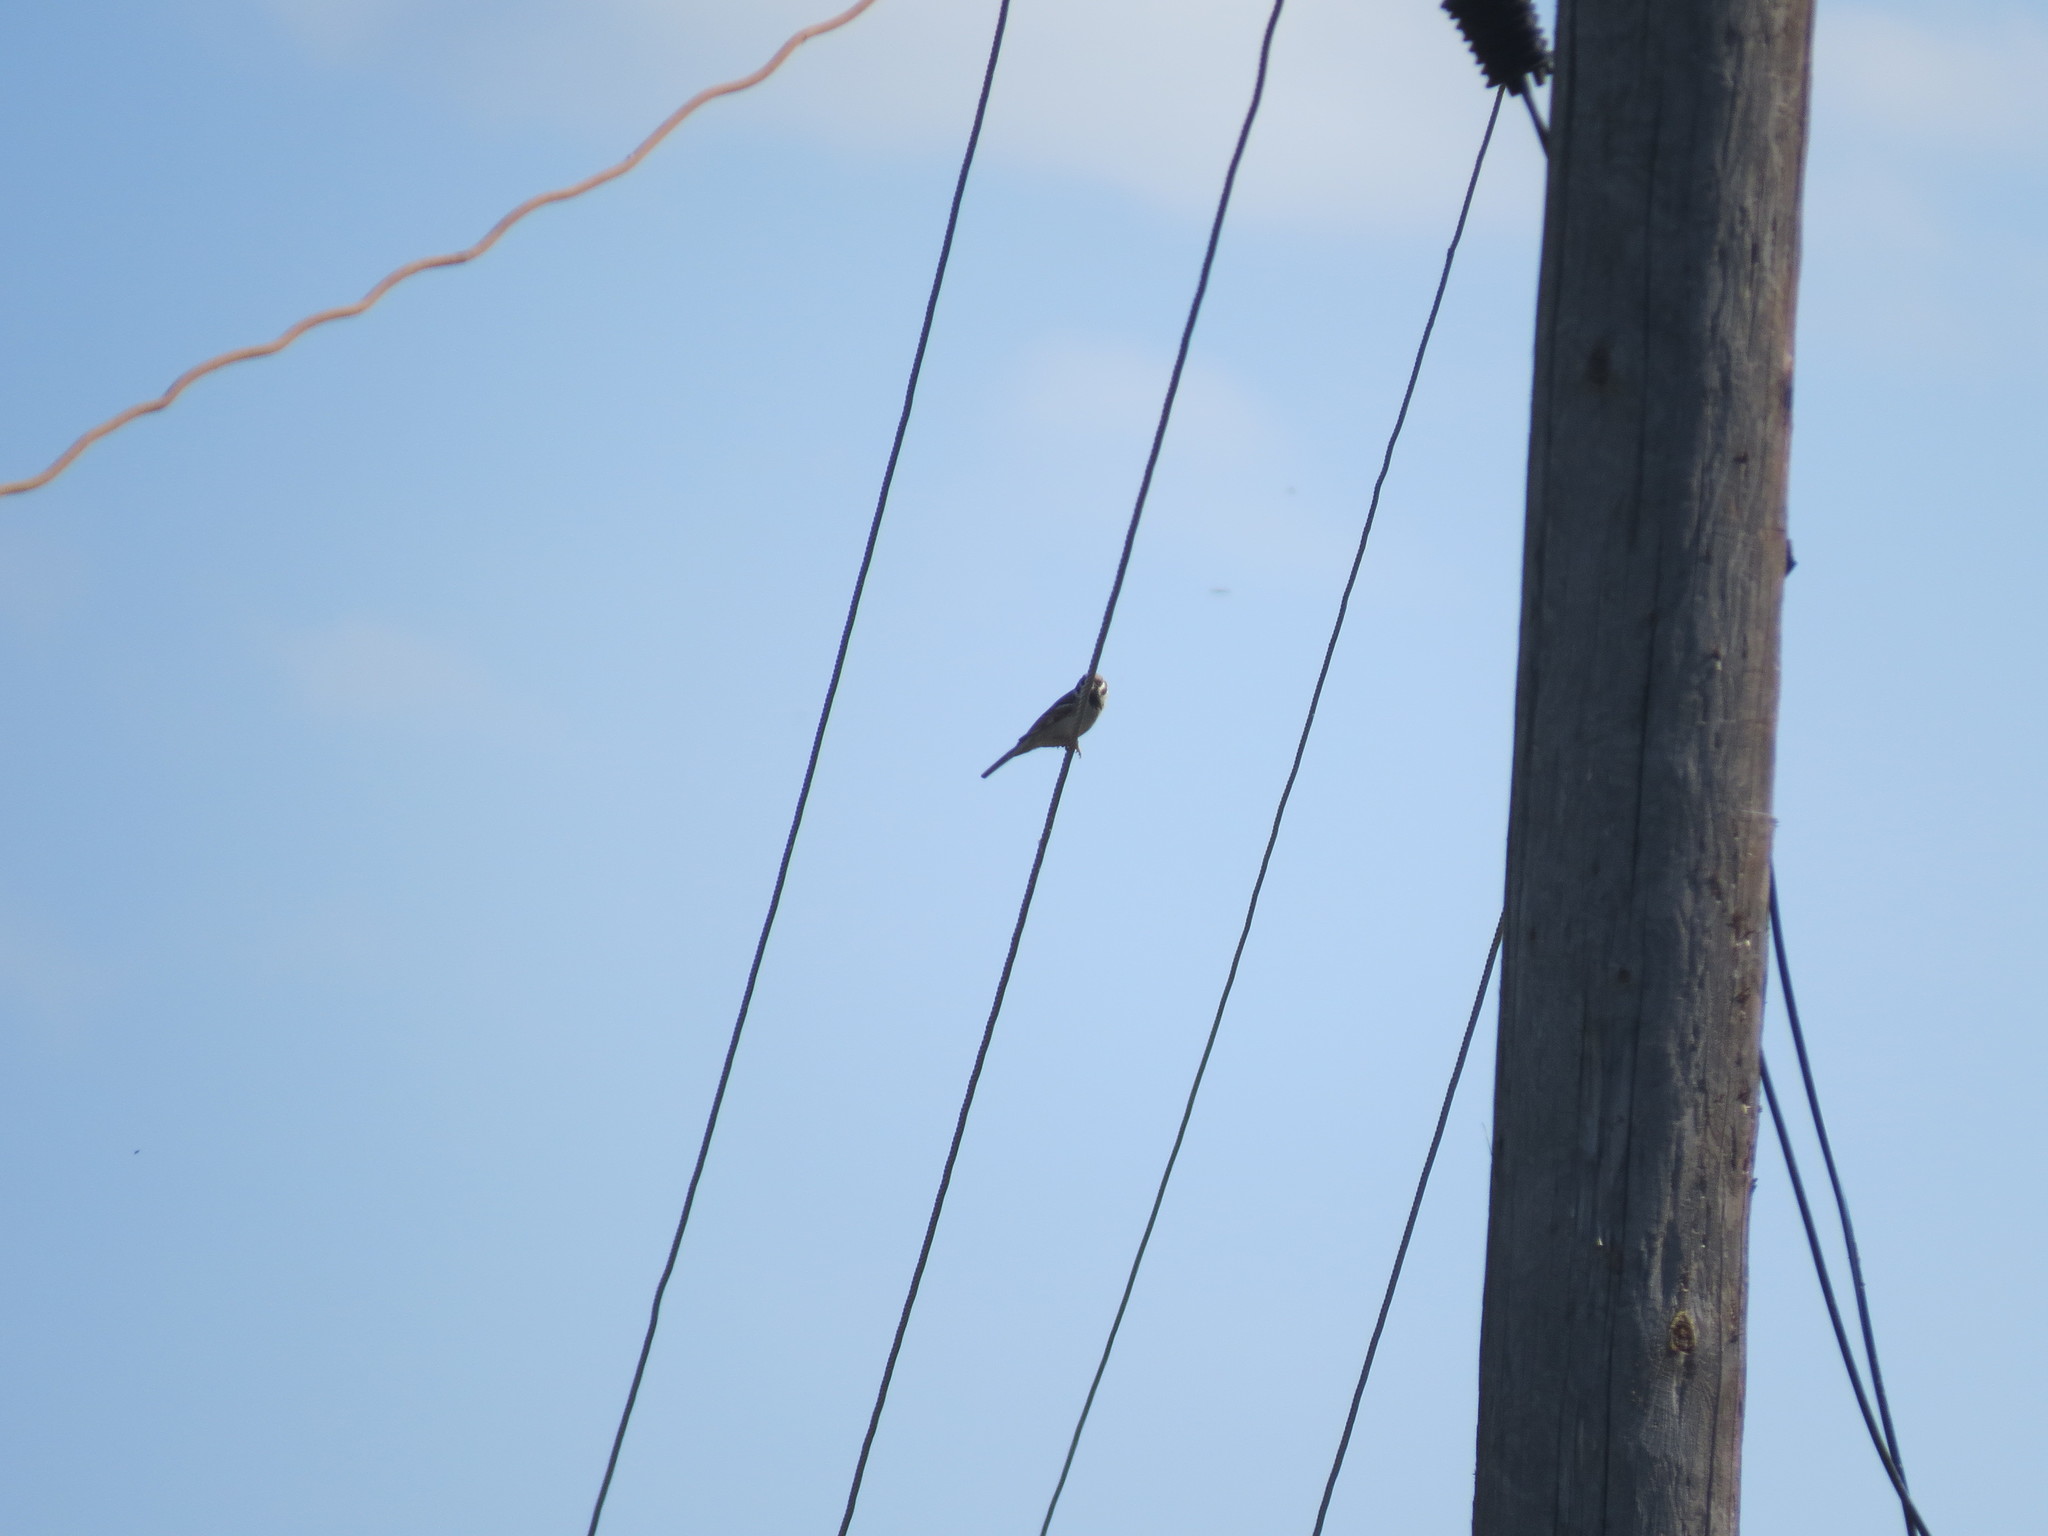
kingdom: Animalia
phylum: Chordata
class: Aves
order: Passeriformes
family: Passeridae
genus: Passer
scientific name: Passer montanus
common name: Eurasian tree sparrow
